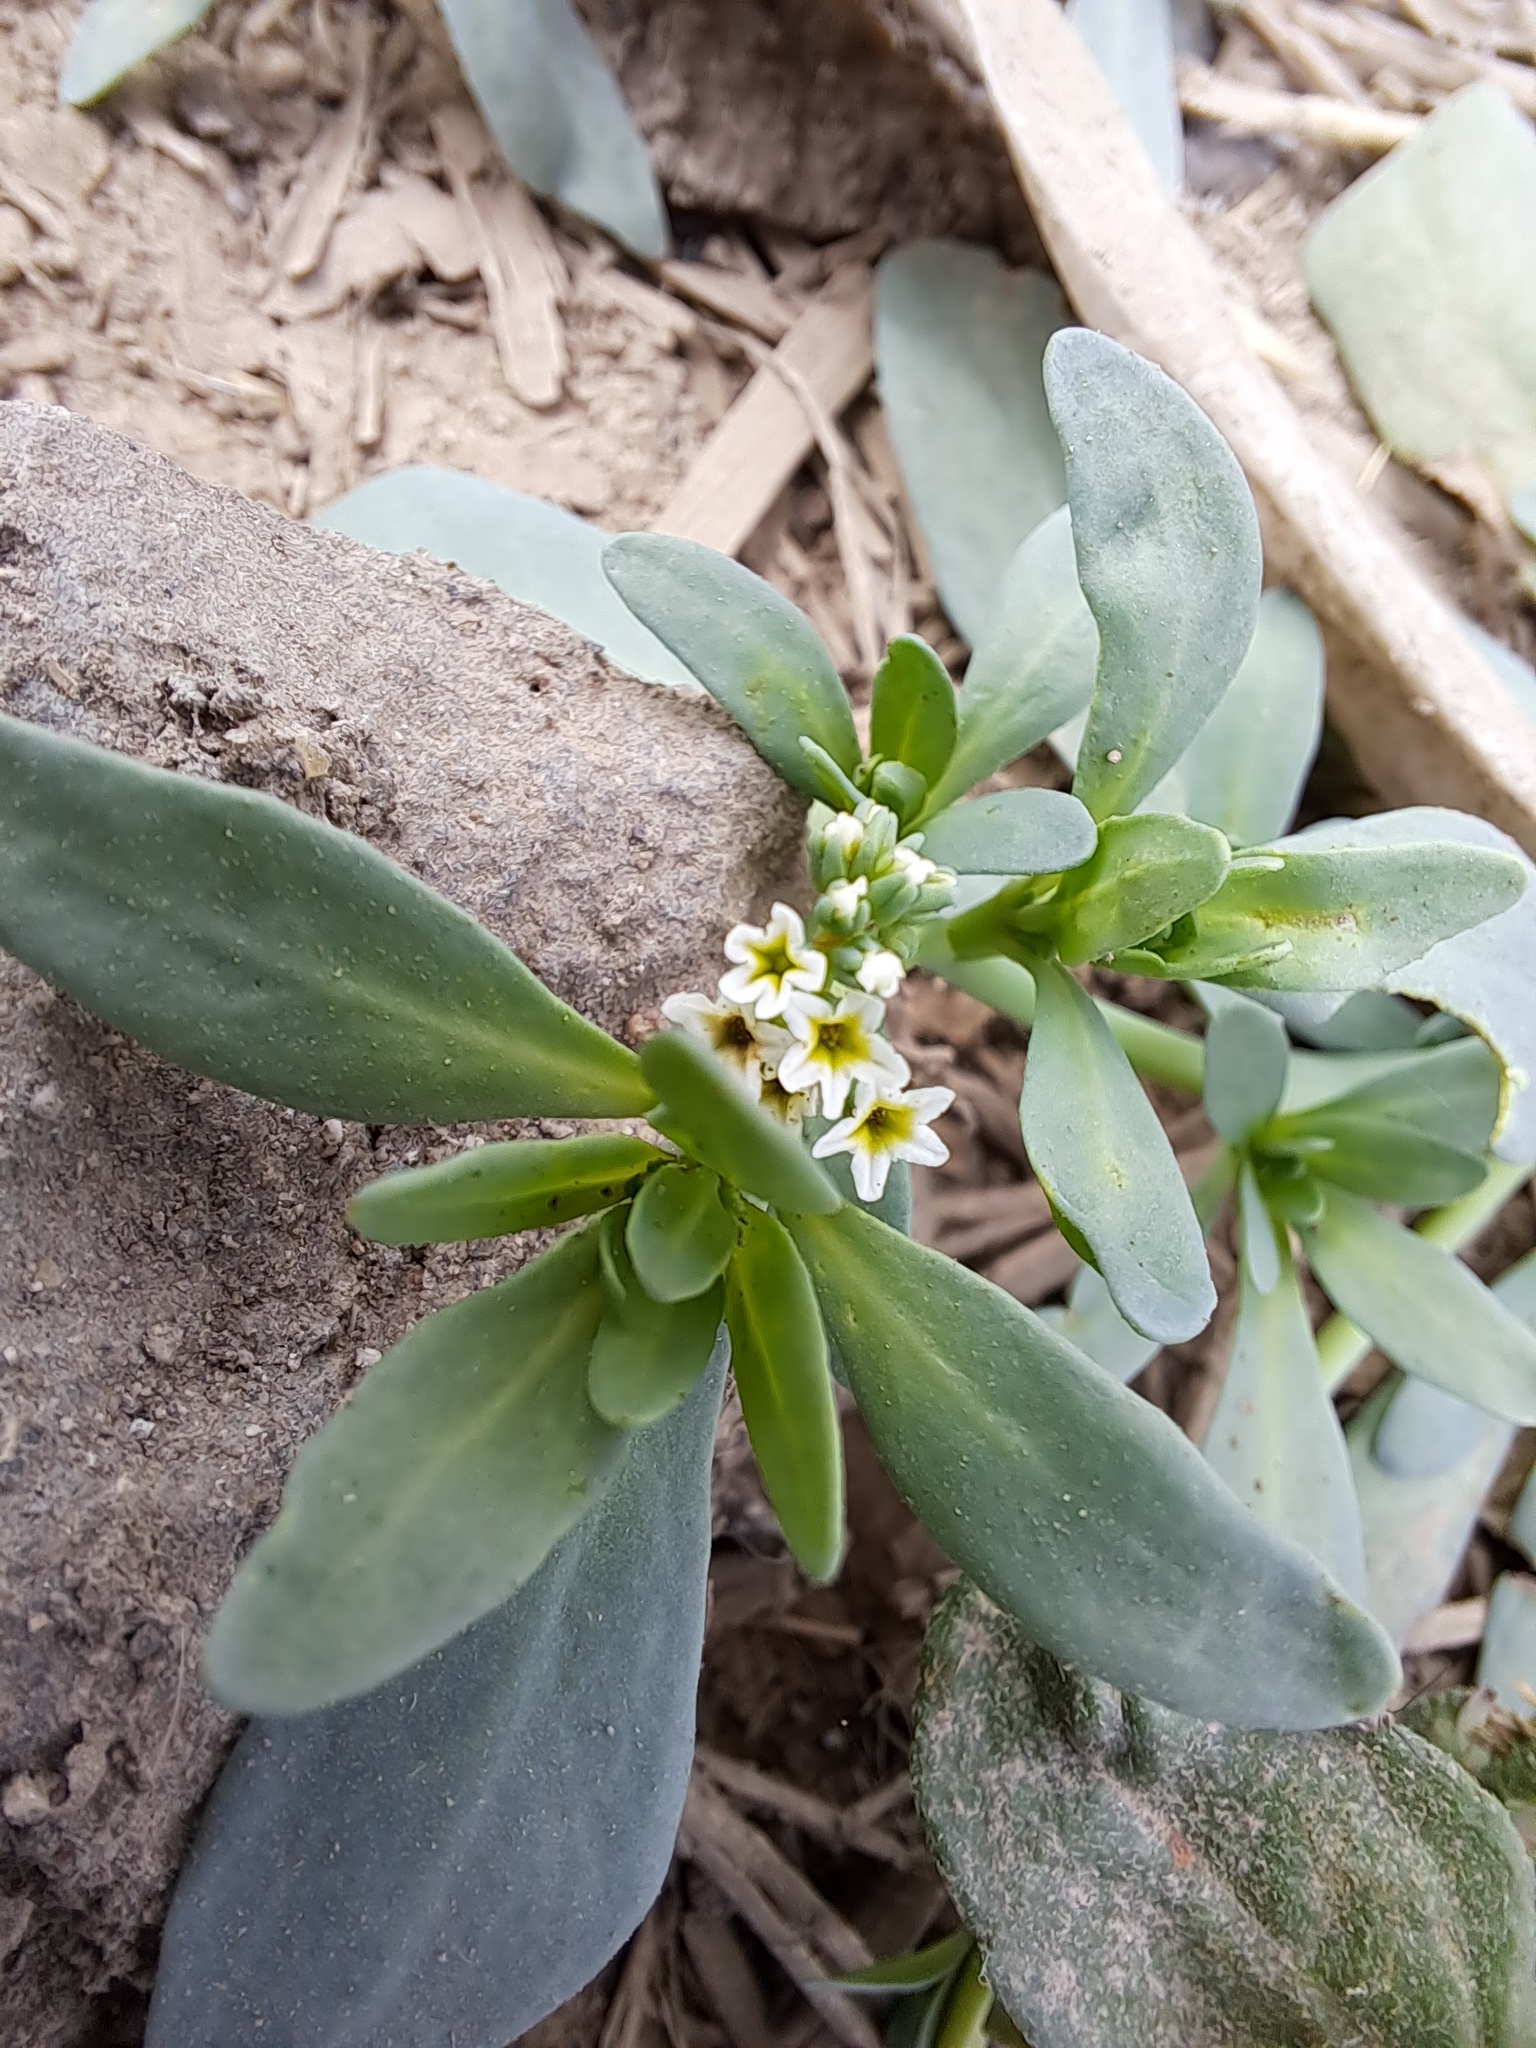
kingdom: Plantae
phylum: Tracheophyta
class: Magnoliopsida
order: Boraginales
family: Heliotropiaceae
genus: Heliotropium
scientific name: Heliotropium curassavicum
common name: Seaside heliotrope
